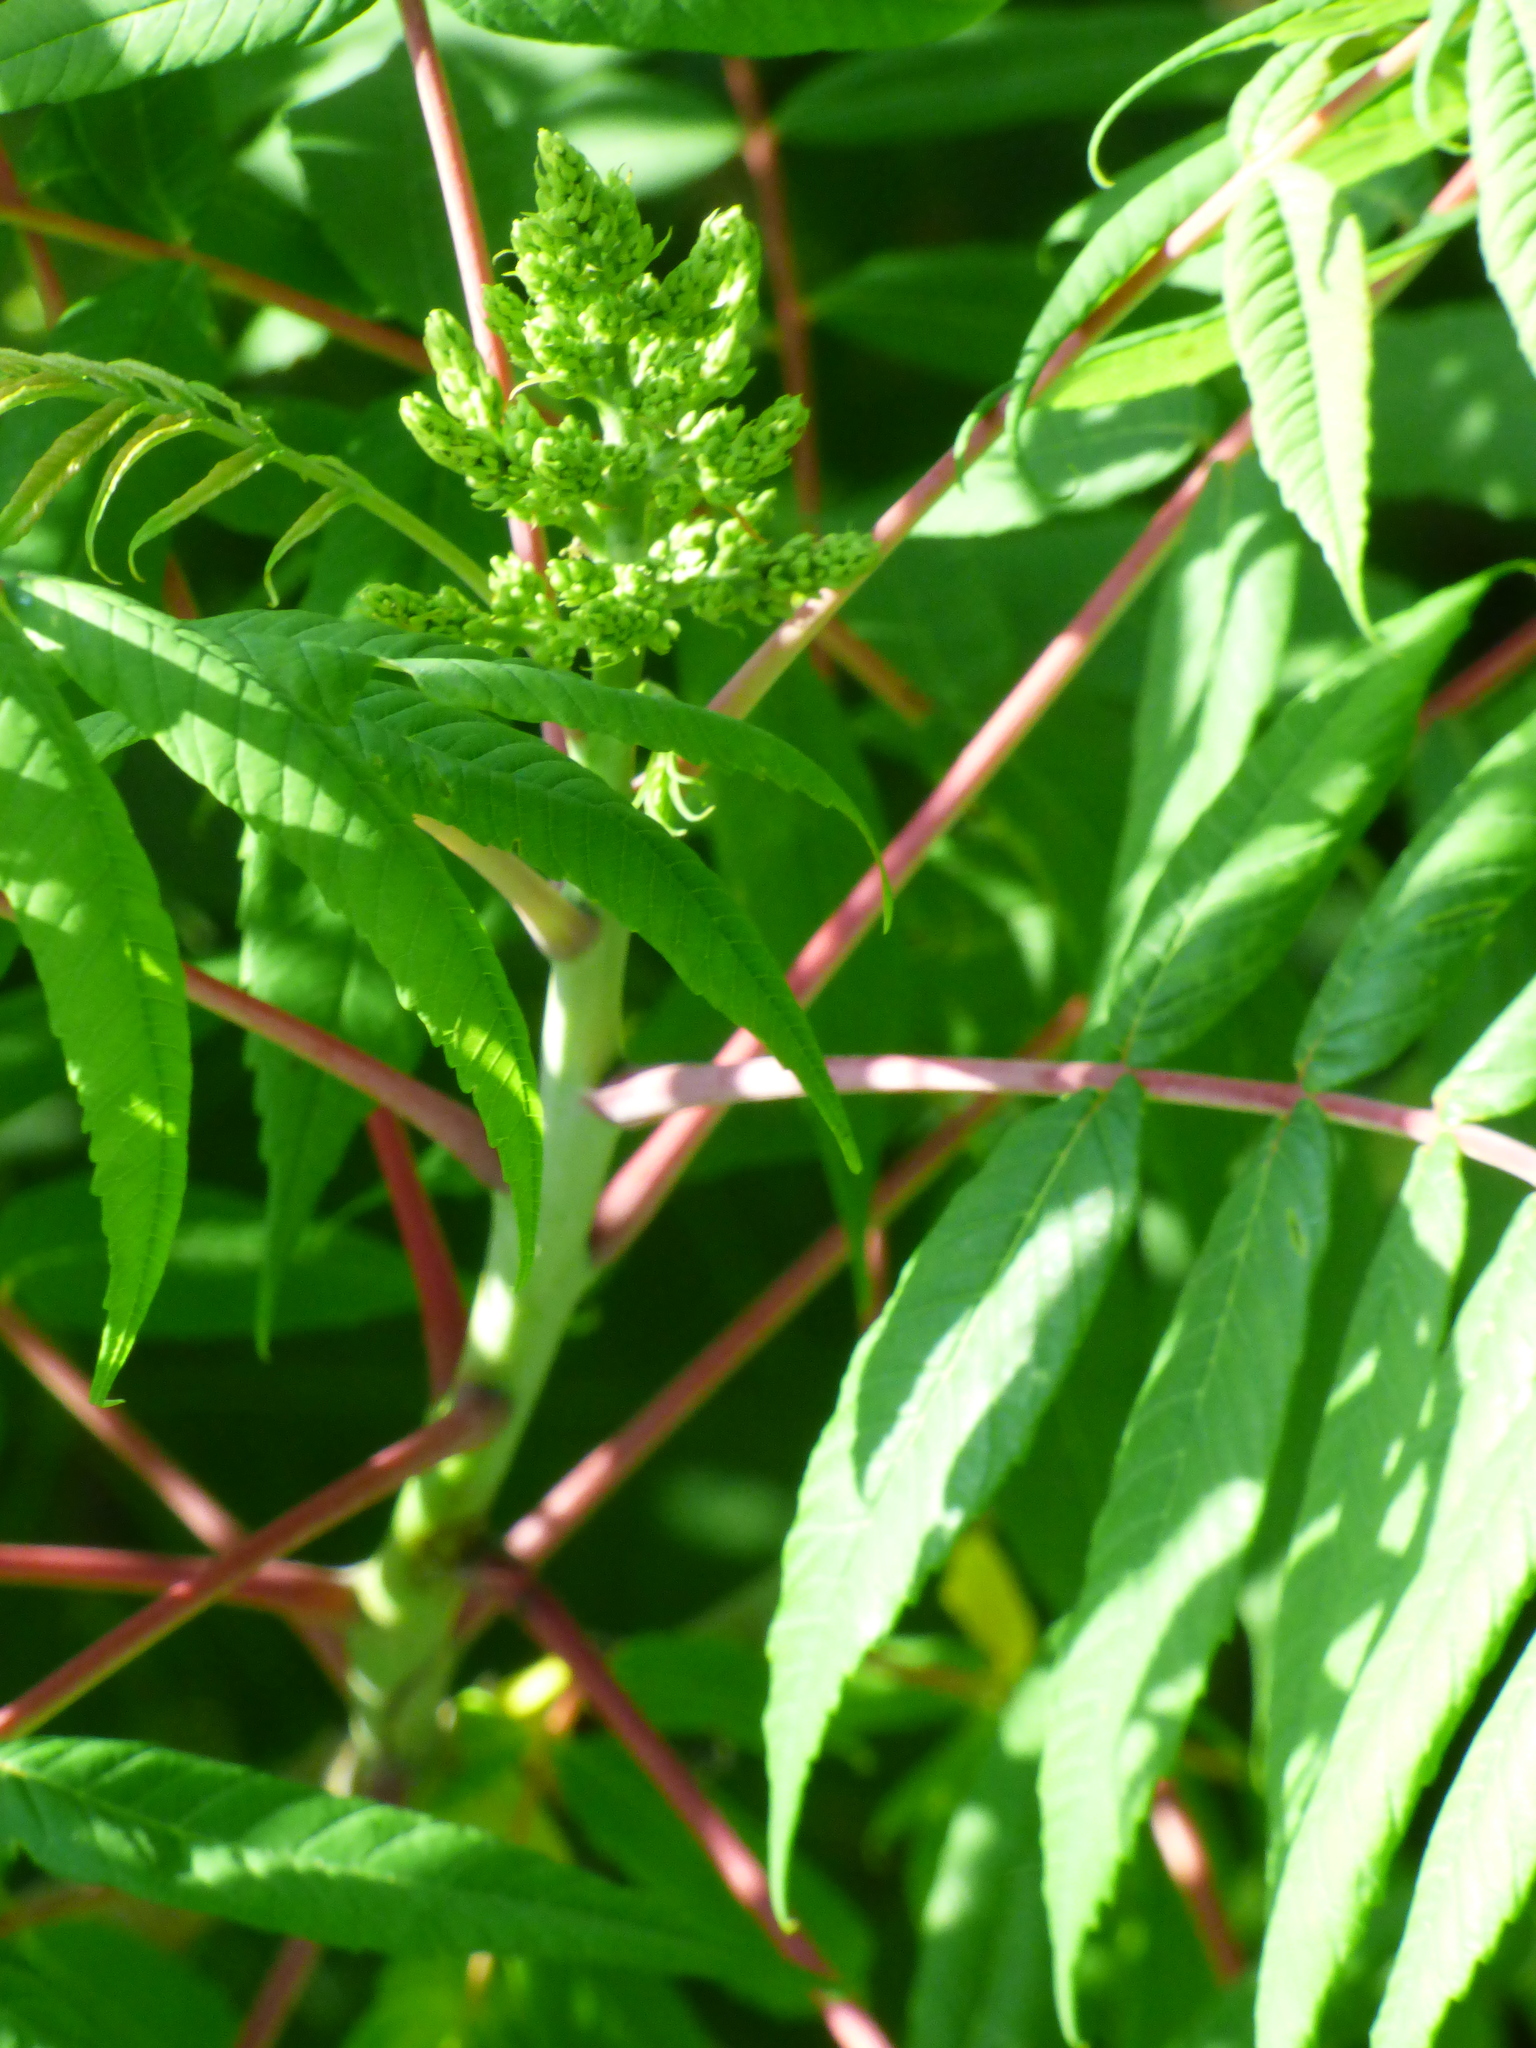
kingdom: Plantae
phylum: Tracheophyta
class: Magnoliopsida
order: Sapindales
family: Anacardiaceae
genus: Rhus
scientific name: Rhus glabra
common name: Scarlet sumac
